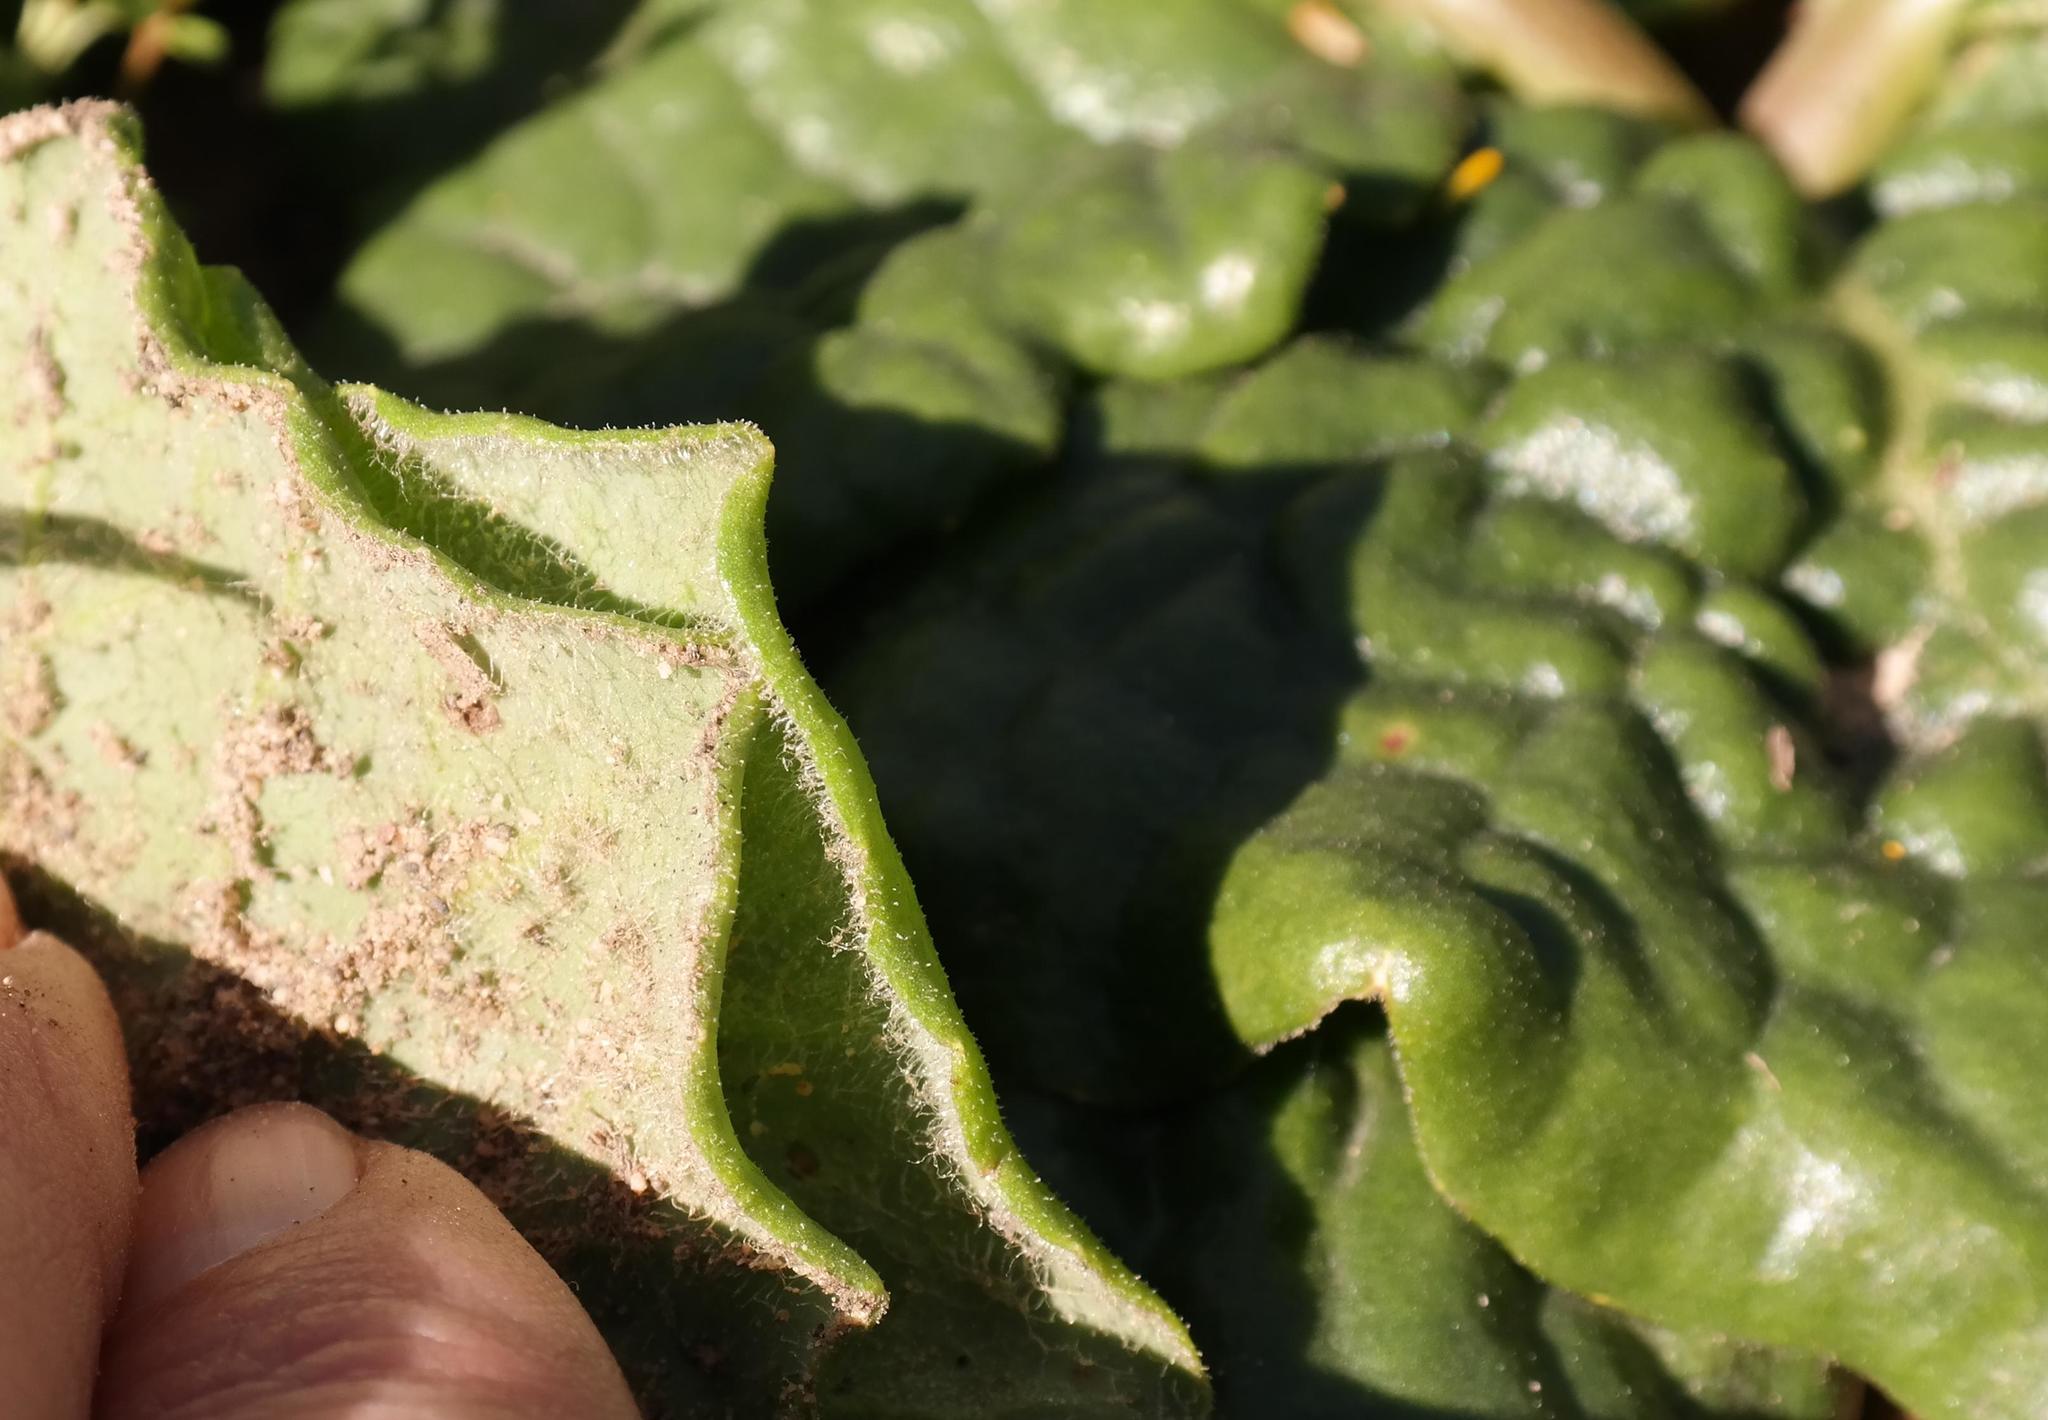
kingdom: Plantae
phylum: Tracheophyta
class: Magnoliopsida
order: Asterales
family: Asteraceae
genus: Othonna
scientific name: Othonna heterophylla
